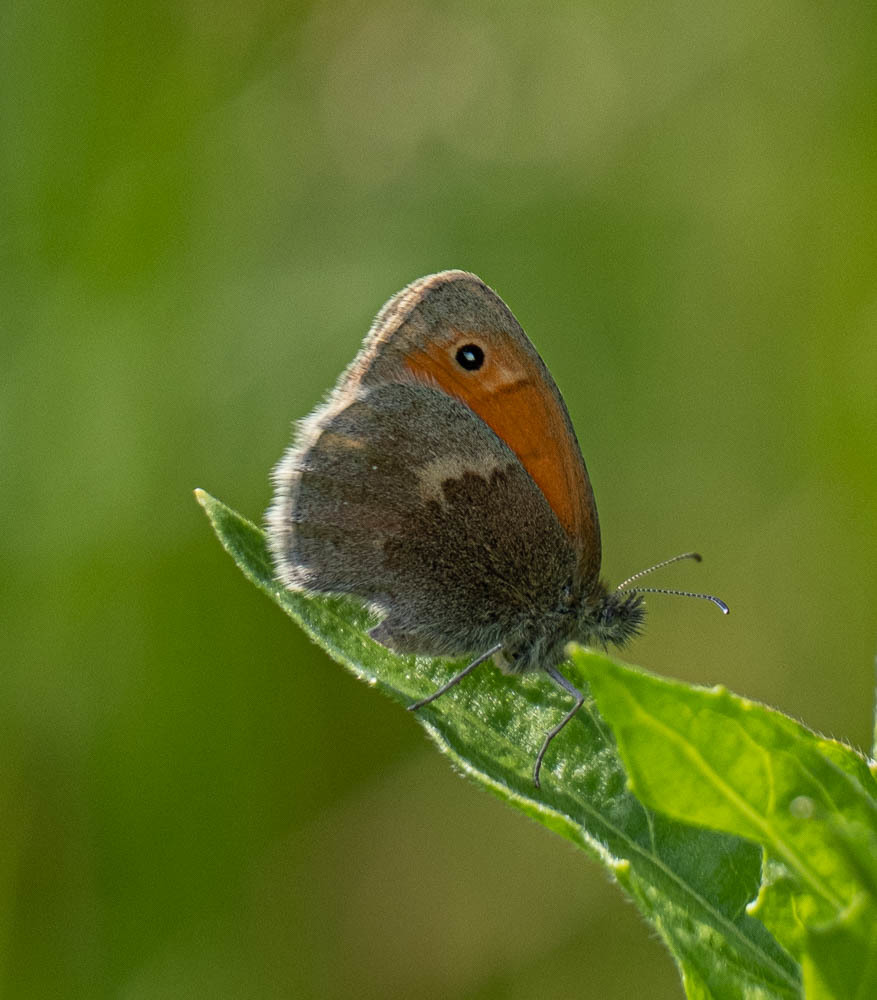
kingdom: Animalia
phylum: Arthropoda
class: Insecta
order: Lepidoptera
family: Nymphalidae
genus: Coenonympha
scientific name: Coenonympha pamphilus
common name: Small heath
